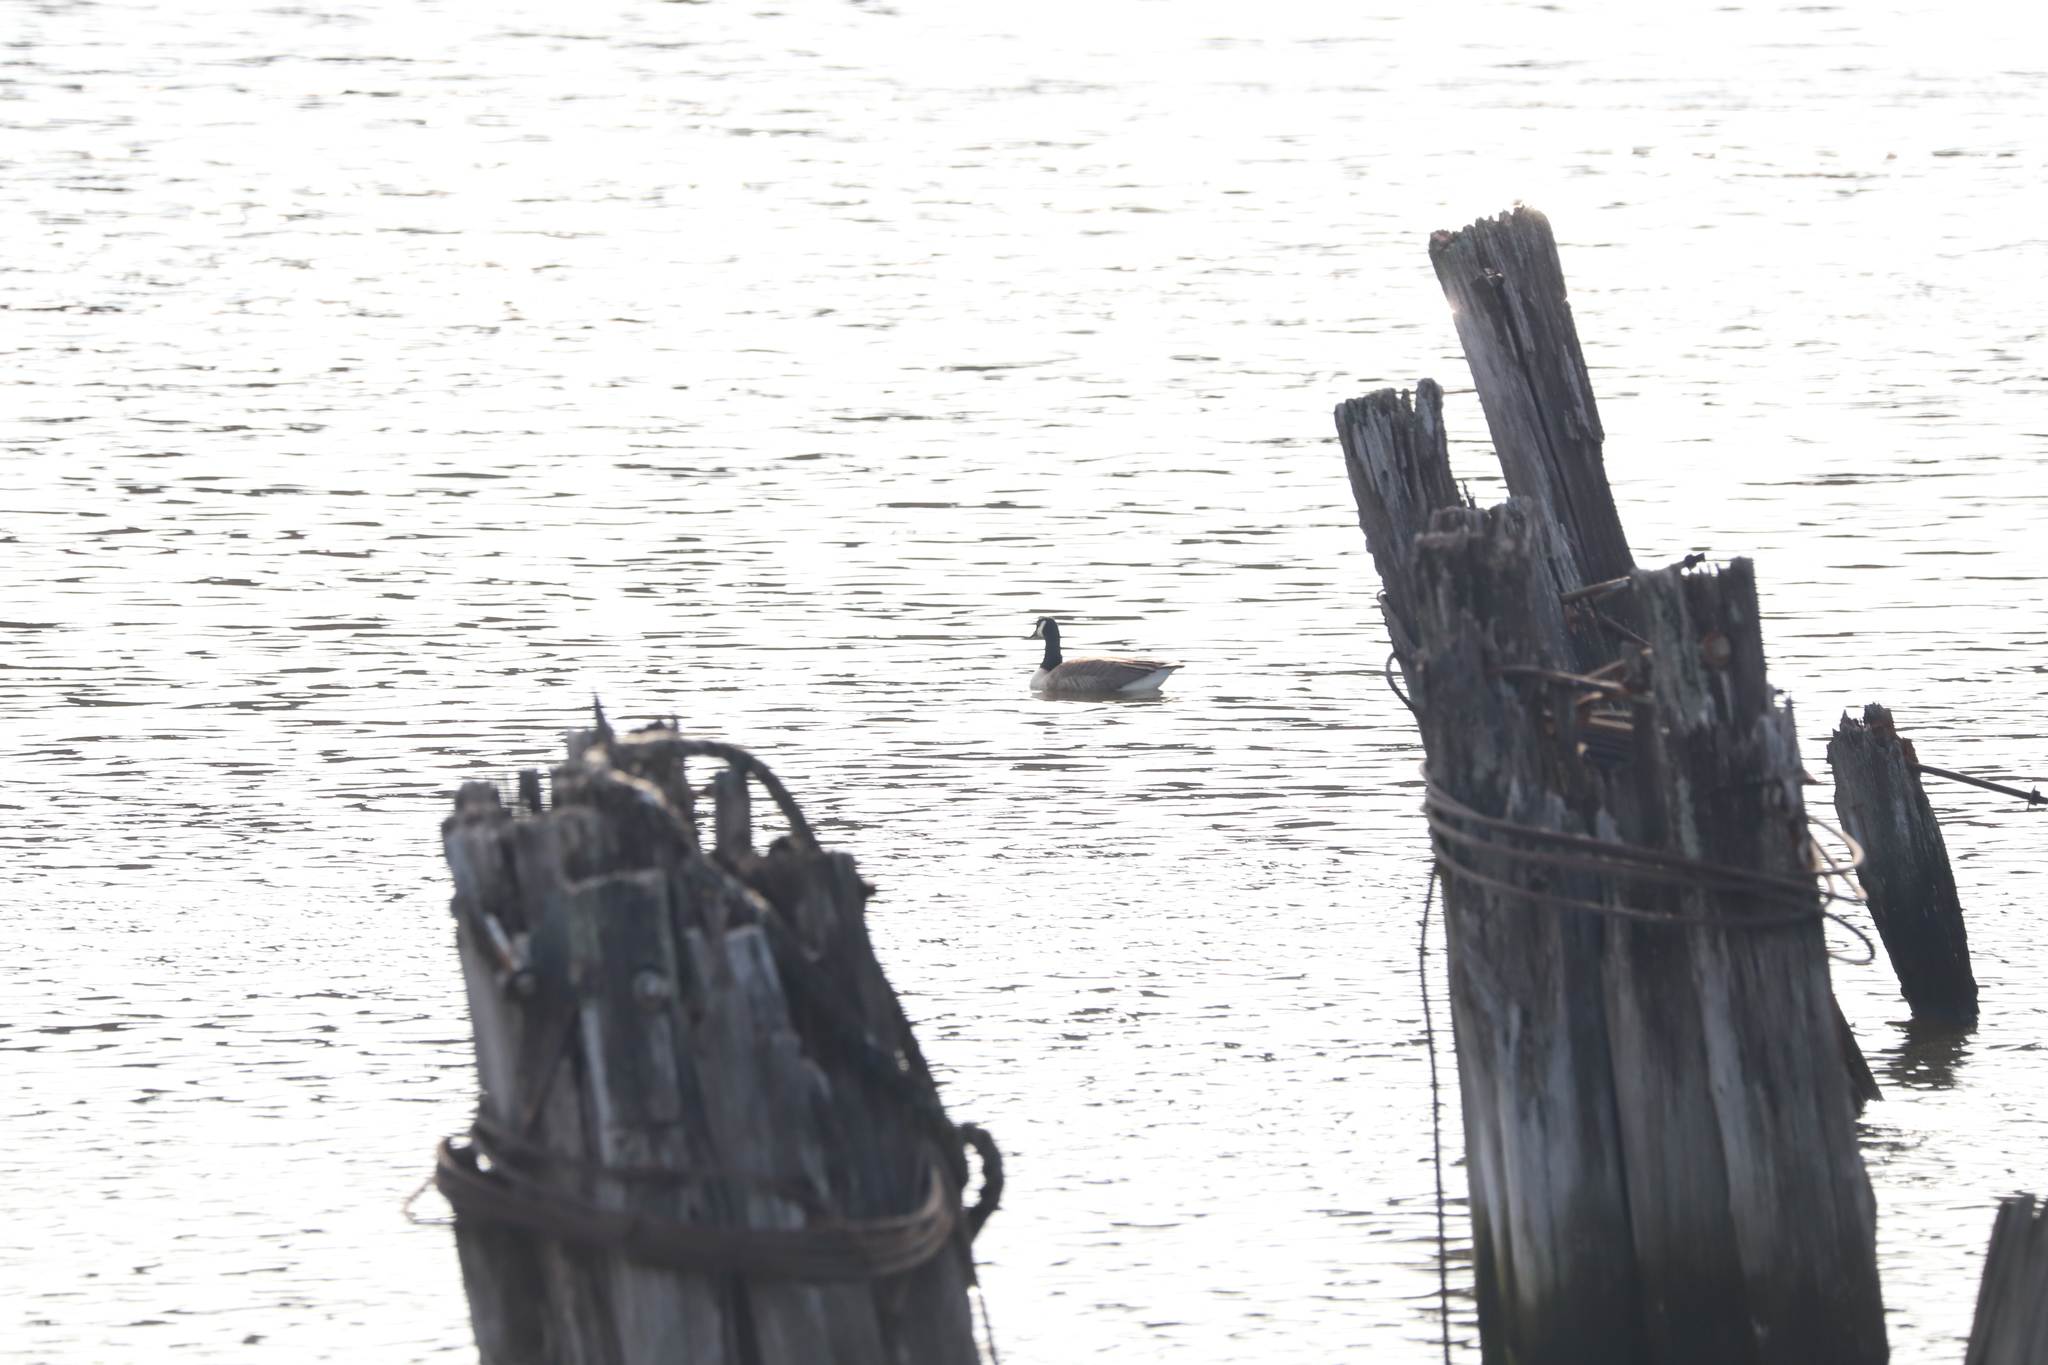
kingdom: Animalia
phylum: Chordata
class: Aves
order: Anseriformes
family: Anatidae
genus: Branta
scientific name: Branta canadensis
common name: Canada goose
